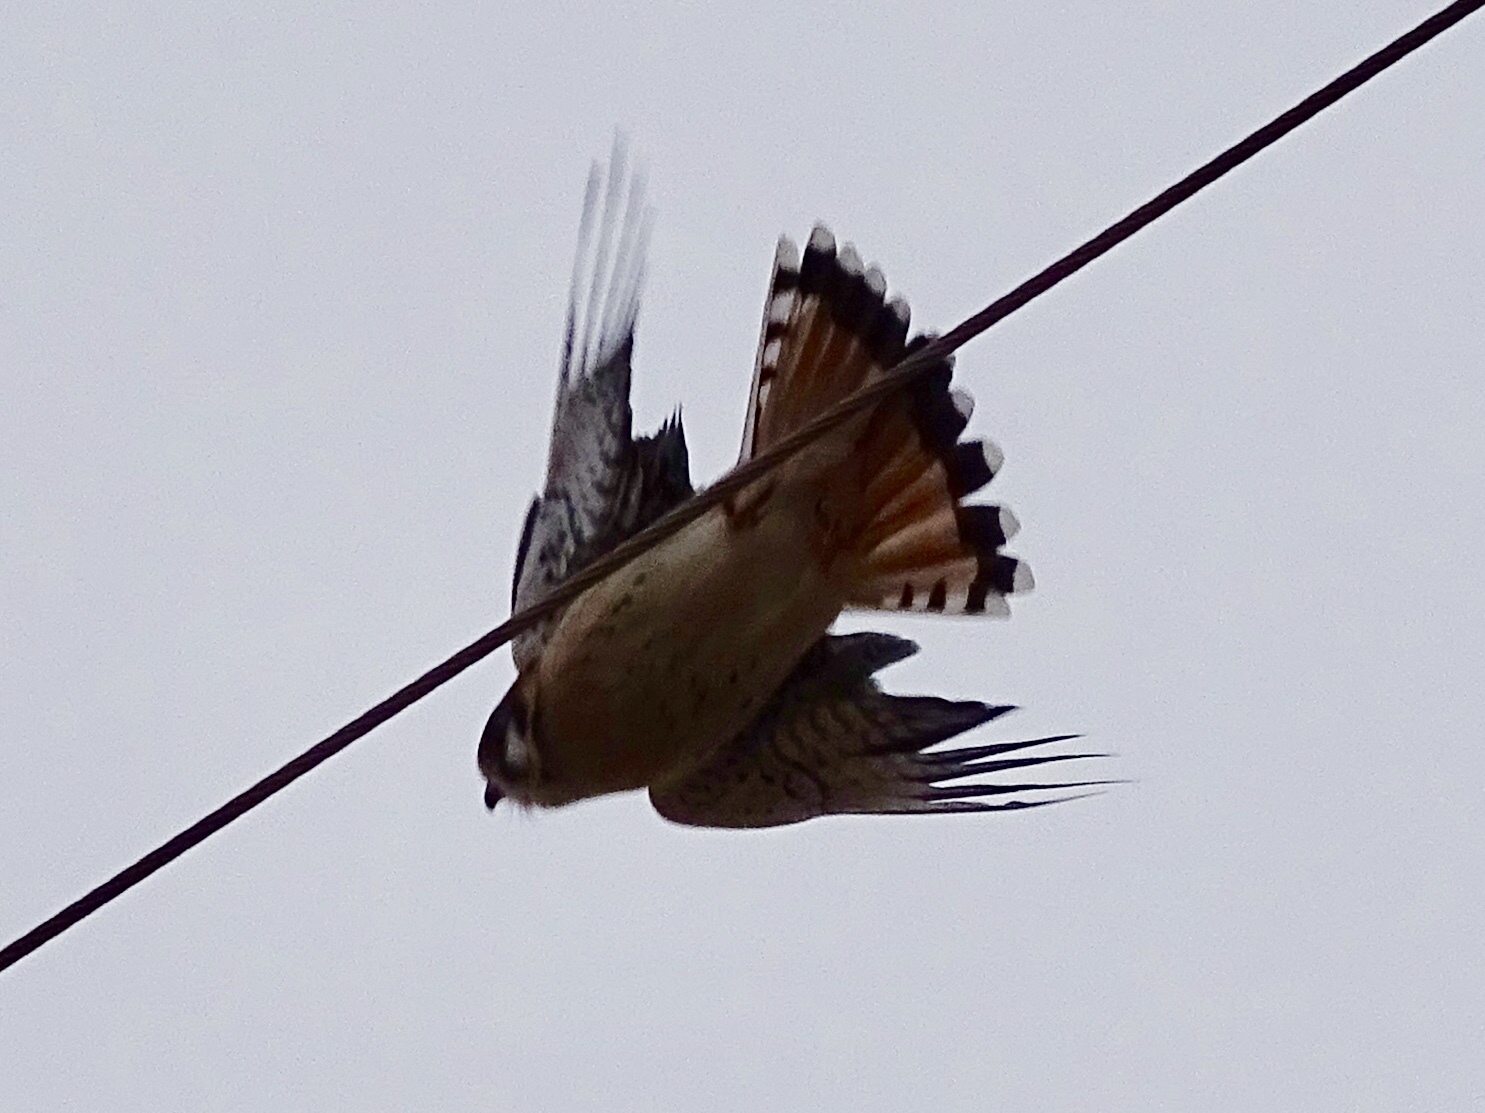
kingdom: Animalia
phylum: Chordata
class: Aves
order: Falconiformes
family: Falconidae
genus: Falco
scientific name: Falco sparverius
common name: American kestrel
